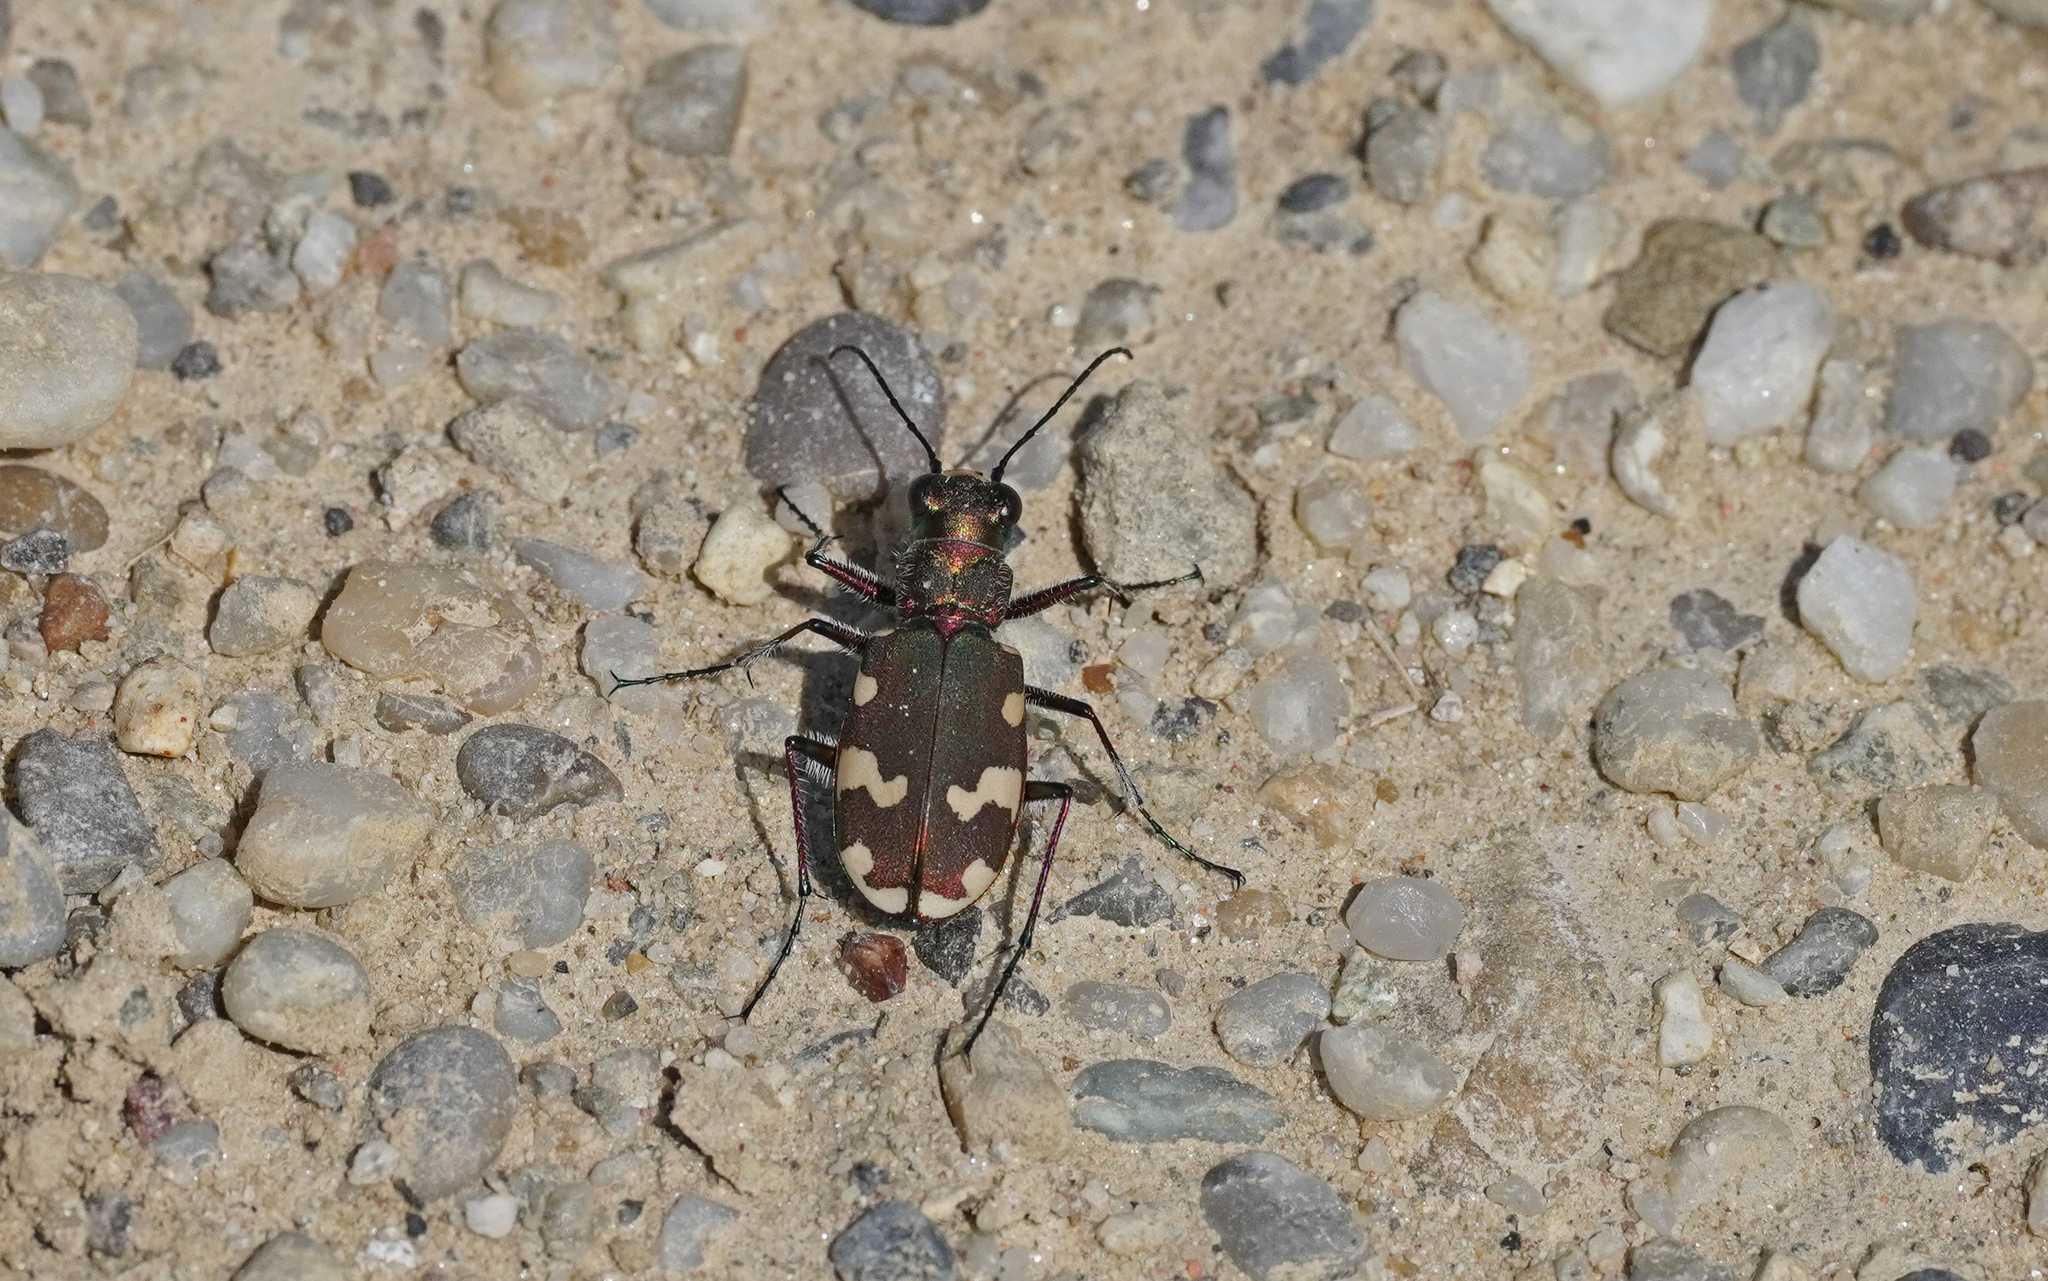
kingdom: Animalia
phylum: Arthropoda
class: Insecta
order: Coleoptera
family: Carabidae
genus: Cicindela
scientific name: Cicindela hybrida
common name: Northern dune tiger beetle
